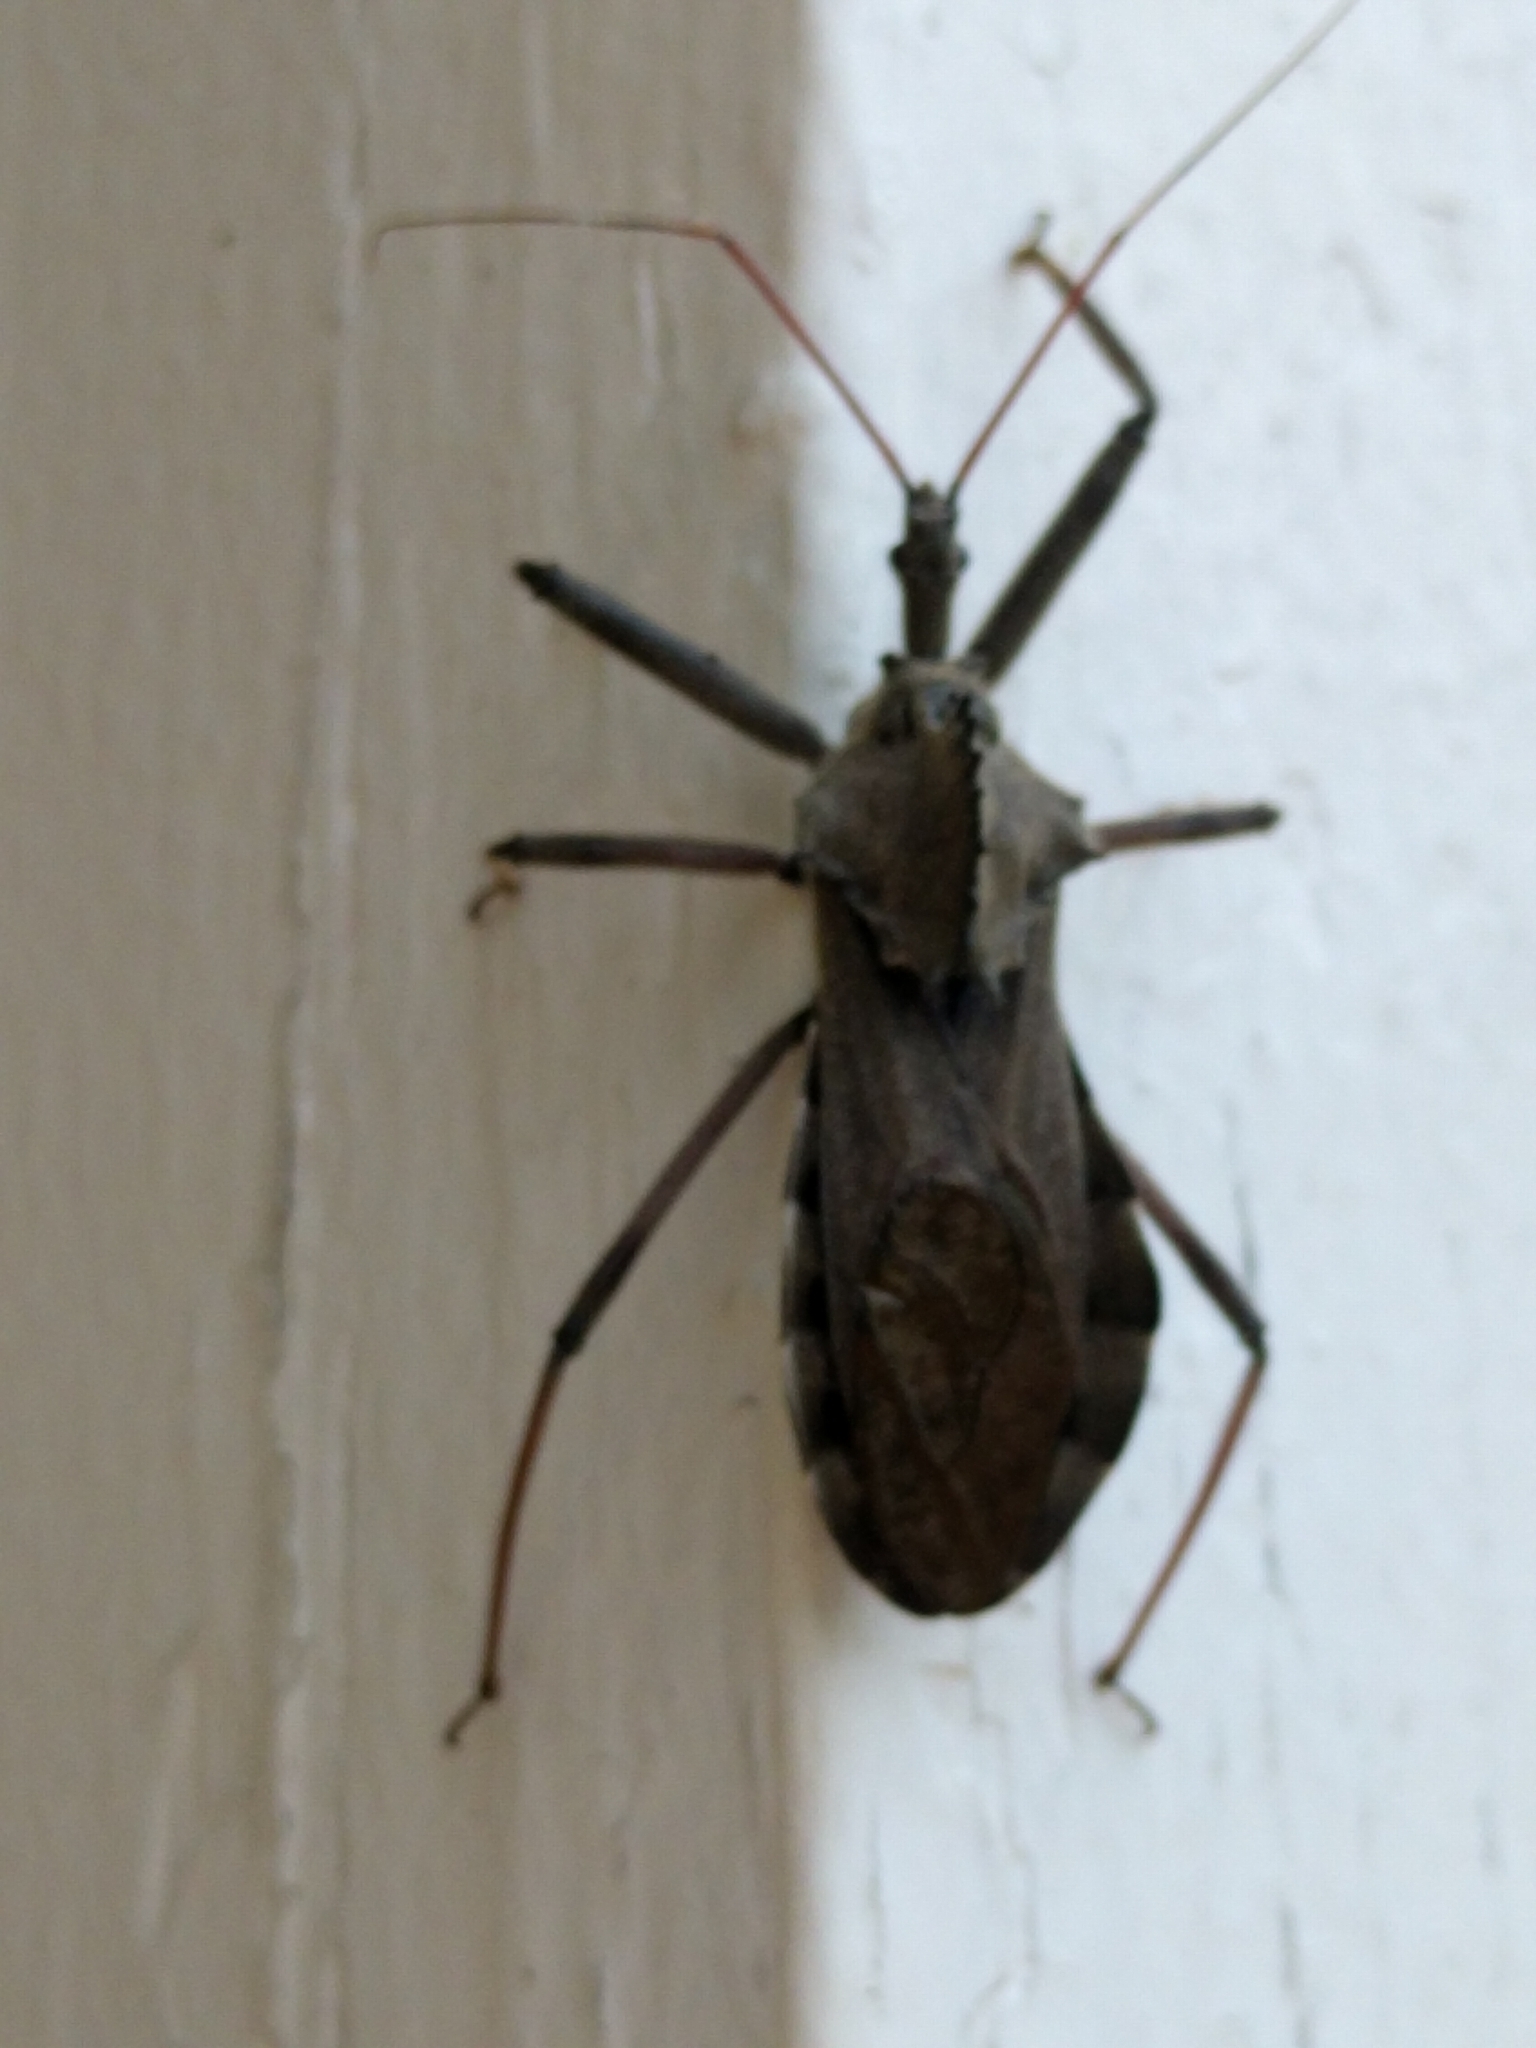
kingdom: Animalia
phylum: Arthropoda
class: Insecta
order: Hemiptera
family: Reduviidae
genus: Arilus
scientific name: Arilus cristatus
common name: North american wheel bug
